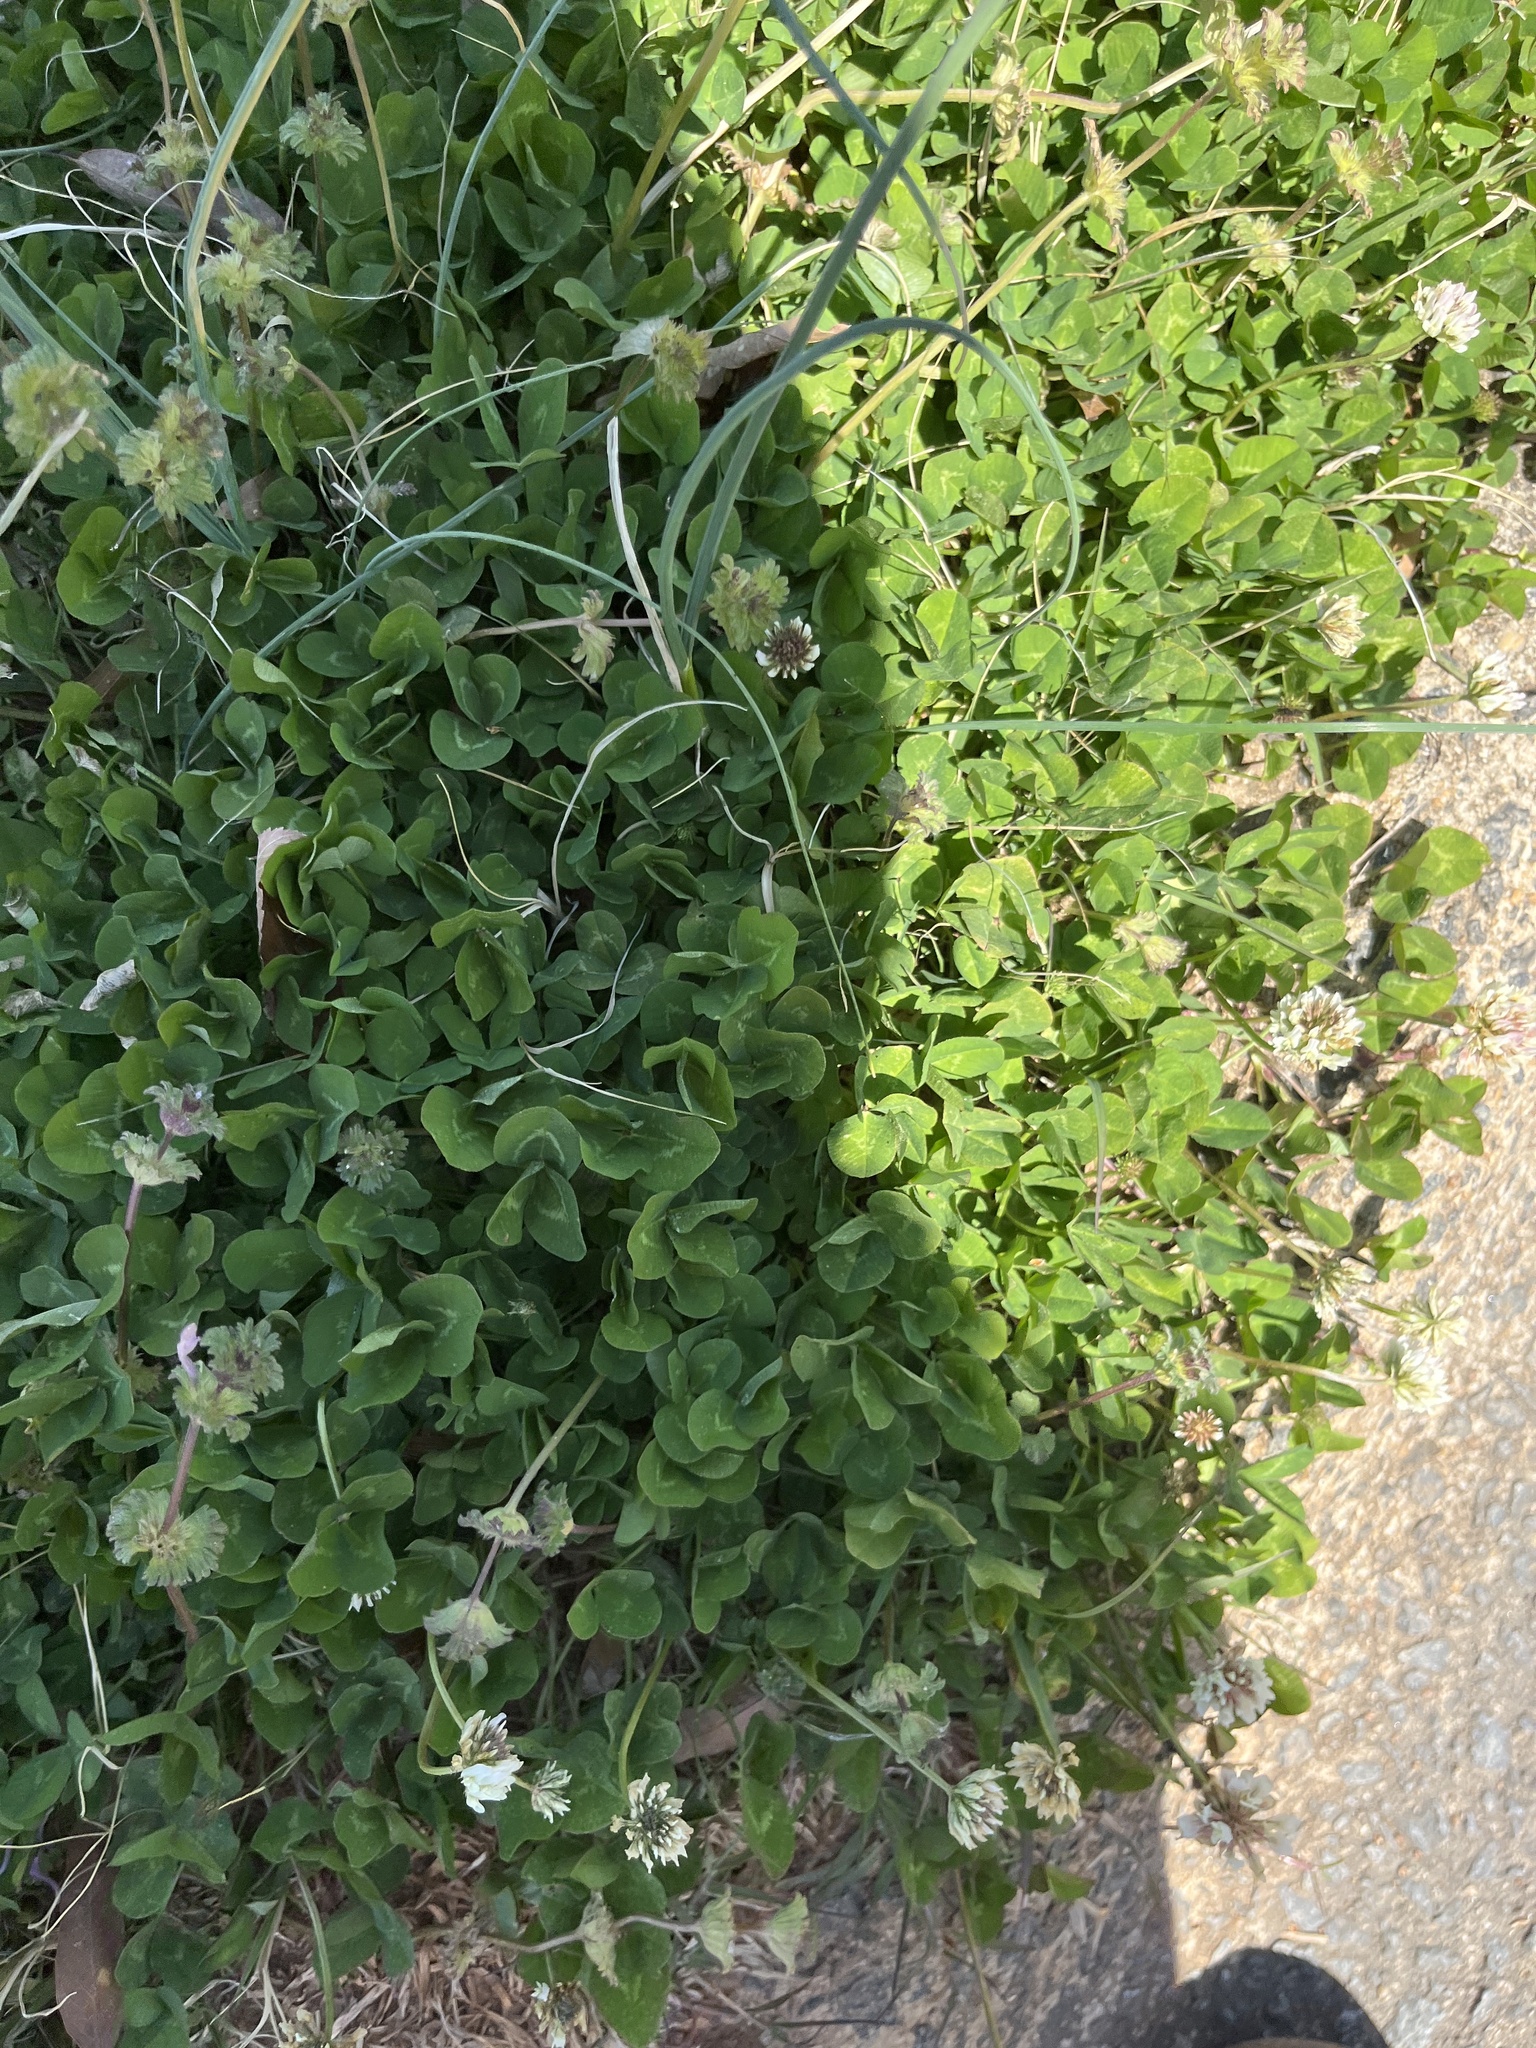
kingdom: Plantae
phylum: Tracheophyta
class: Magnoliopsida
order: Fabales
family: Fabaceae
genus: Trifolium
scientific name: Trifolium repens
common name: White clover
